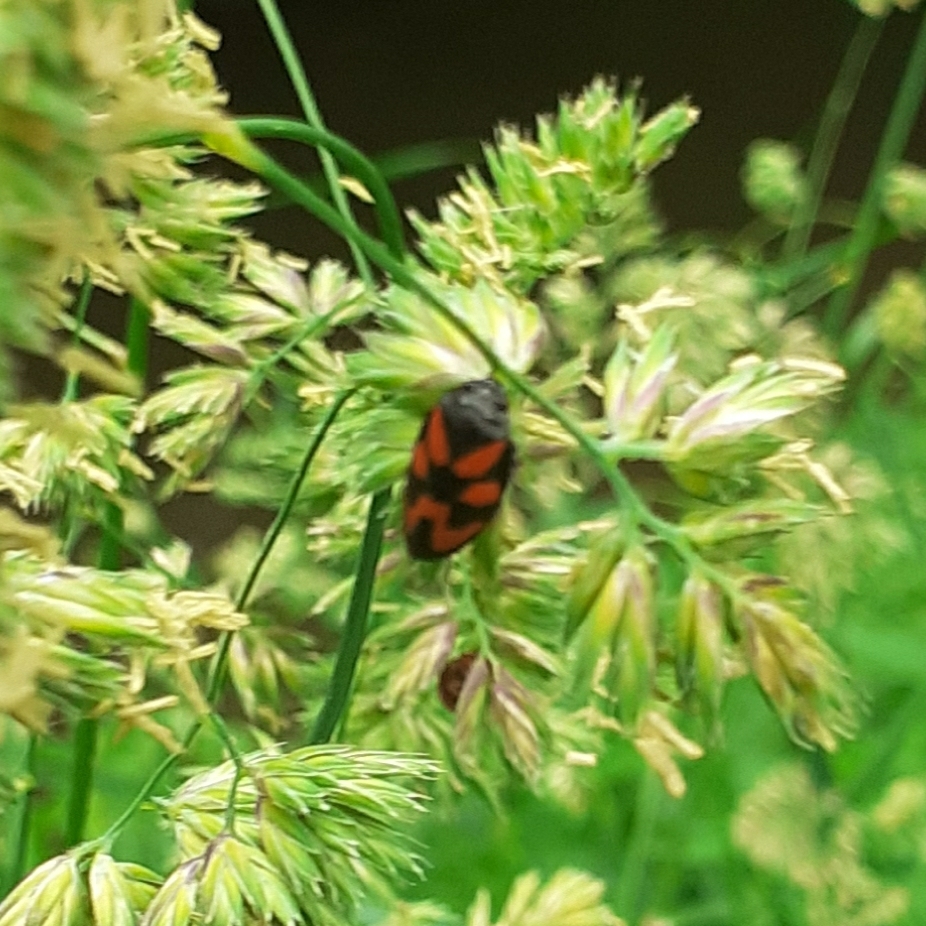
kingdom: Animalia
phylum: Arthropoda
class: Insecta
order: Hemiptera
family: Cercopidae
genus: Cercopis
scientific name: Cercopis vulnerata
